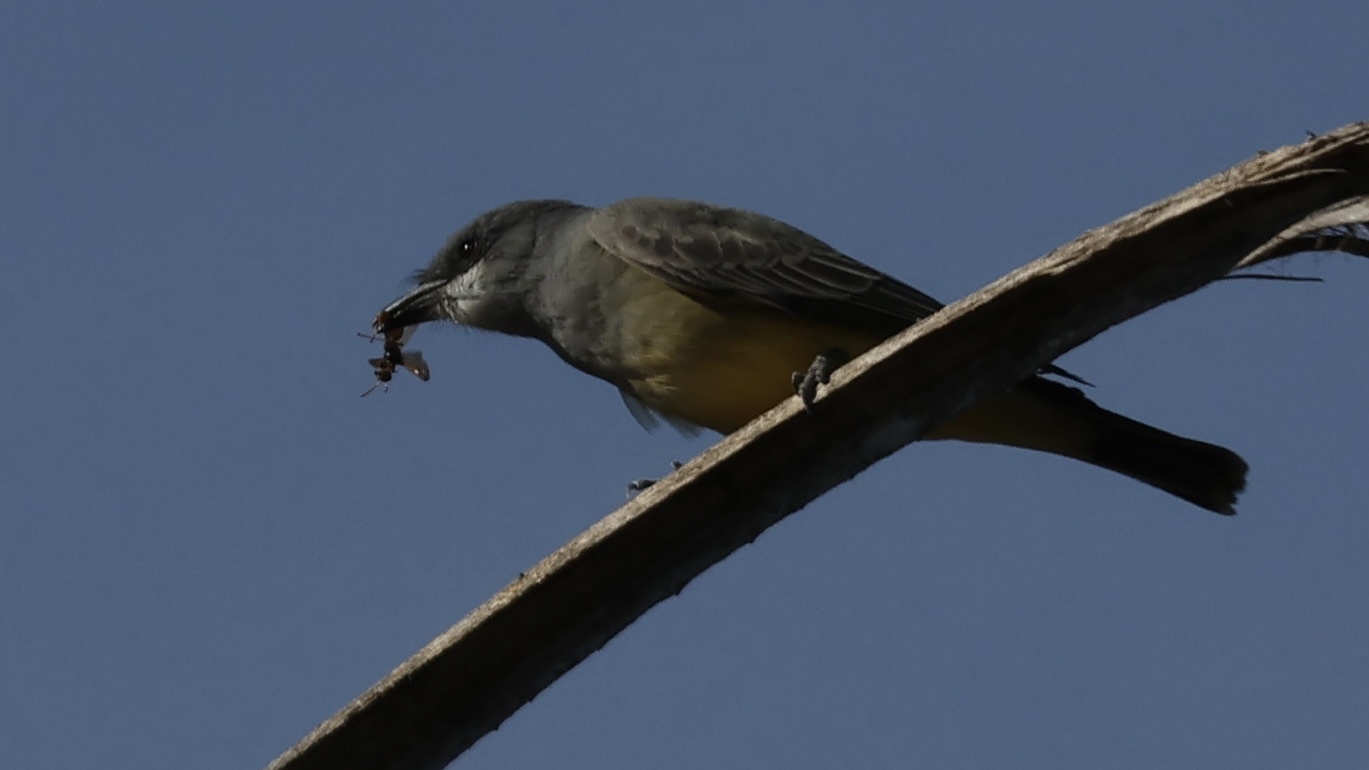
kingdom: Animalia
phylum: Chordata
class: Aves
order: Passeriformes
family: Tyrannidae
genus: Tyrannus
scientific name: Tyrannus vociferans
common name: Cassin's kingbird
